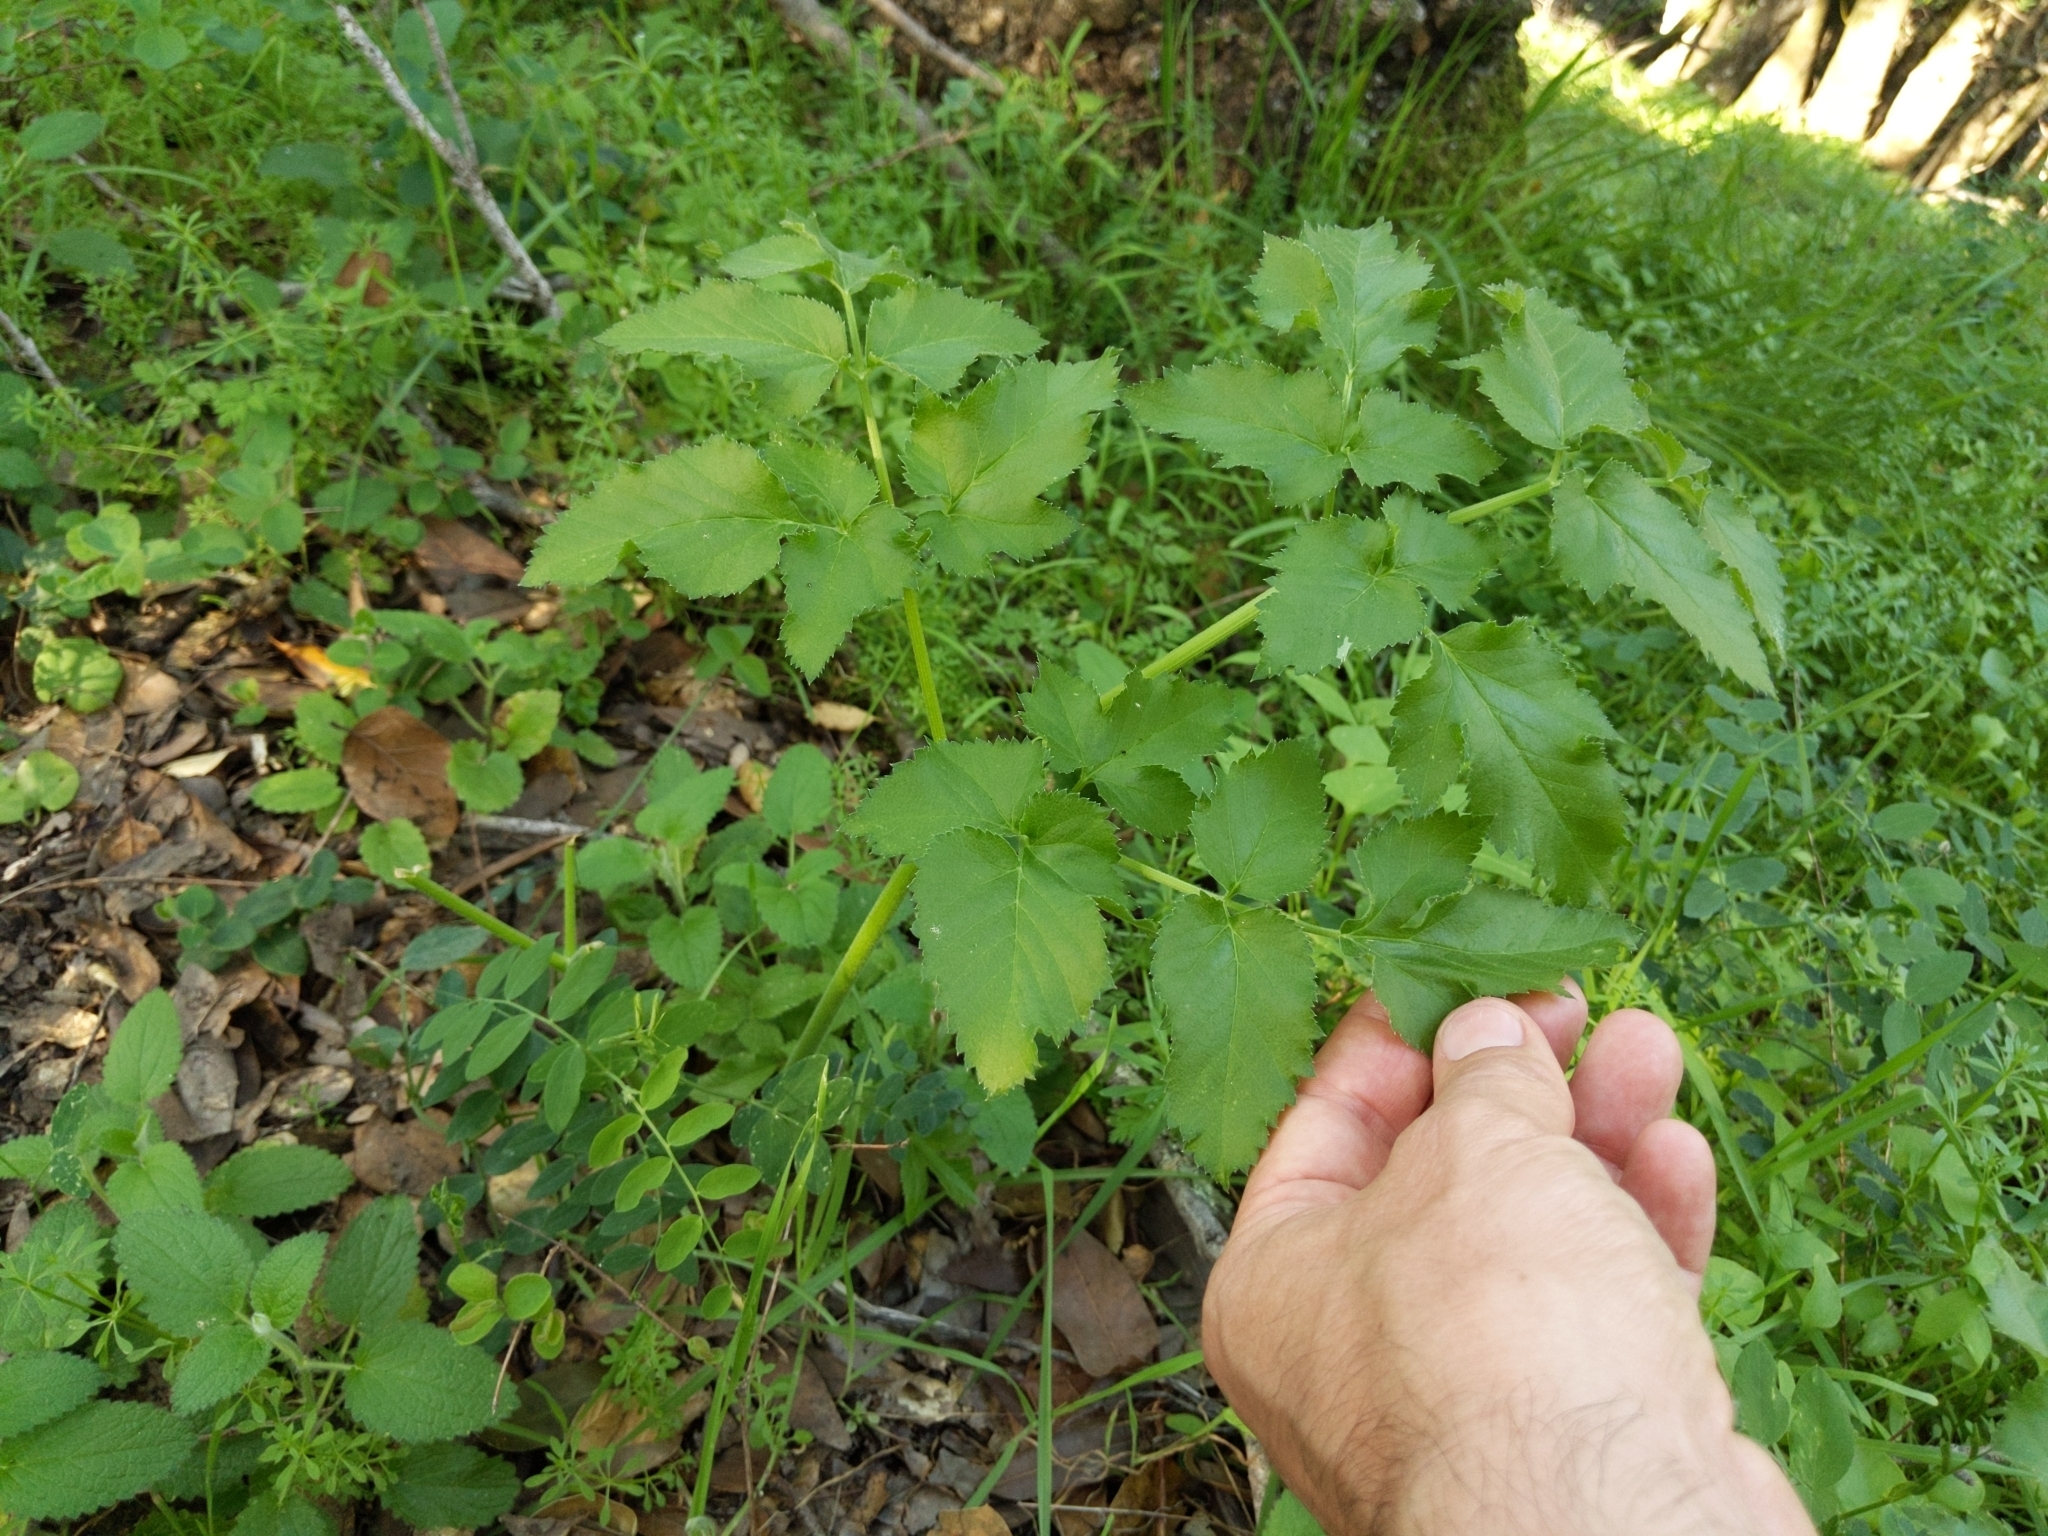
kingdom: Plantae
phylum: Tracheophyta
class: Magnoliopsida
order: Apiales
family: Apiaceae
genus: Angelica
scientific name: Angelica californica
